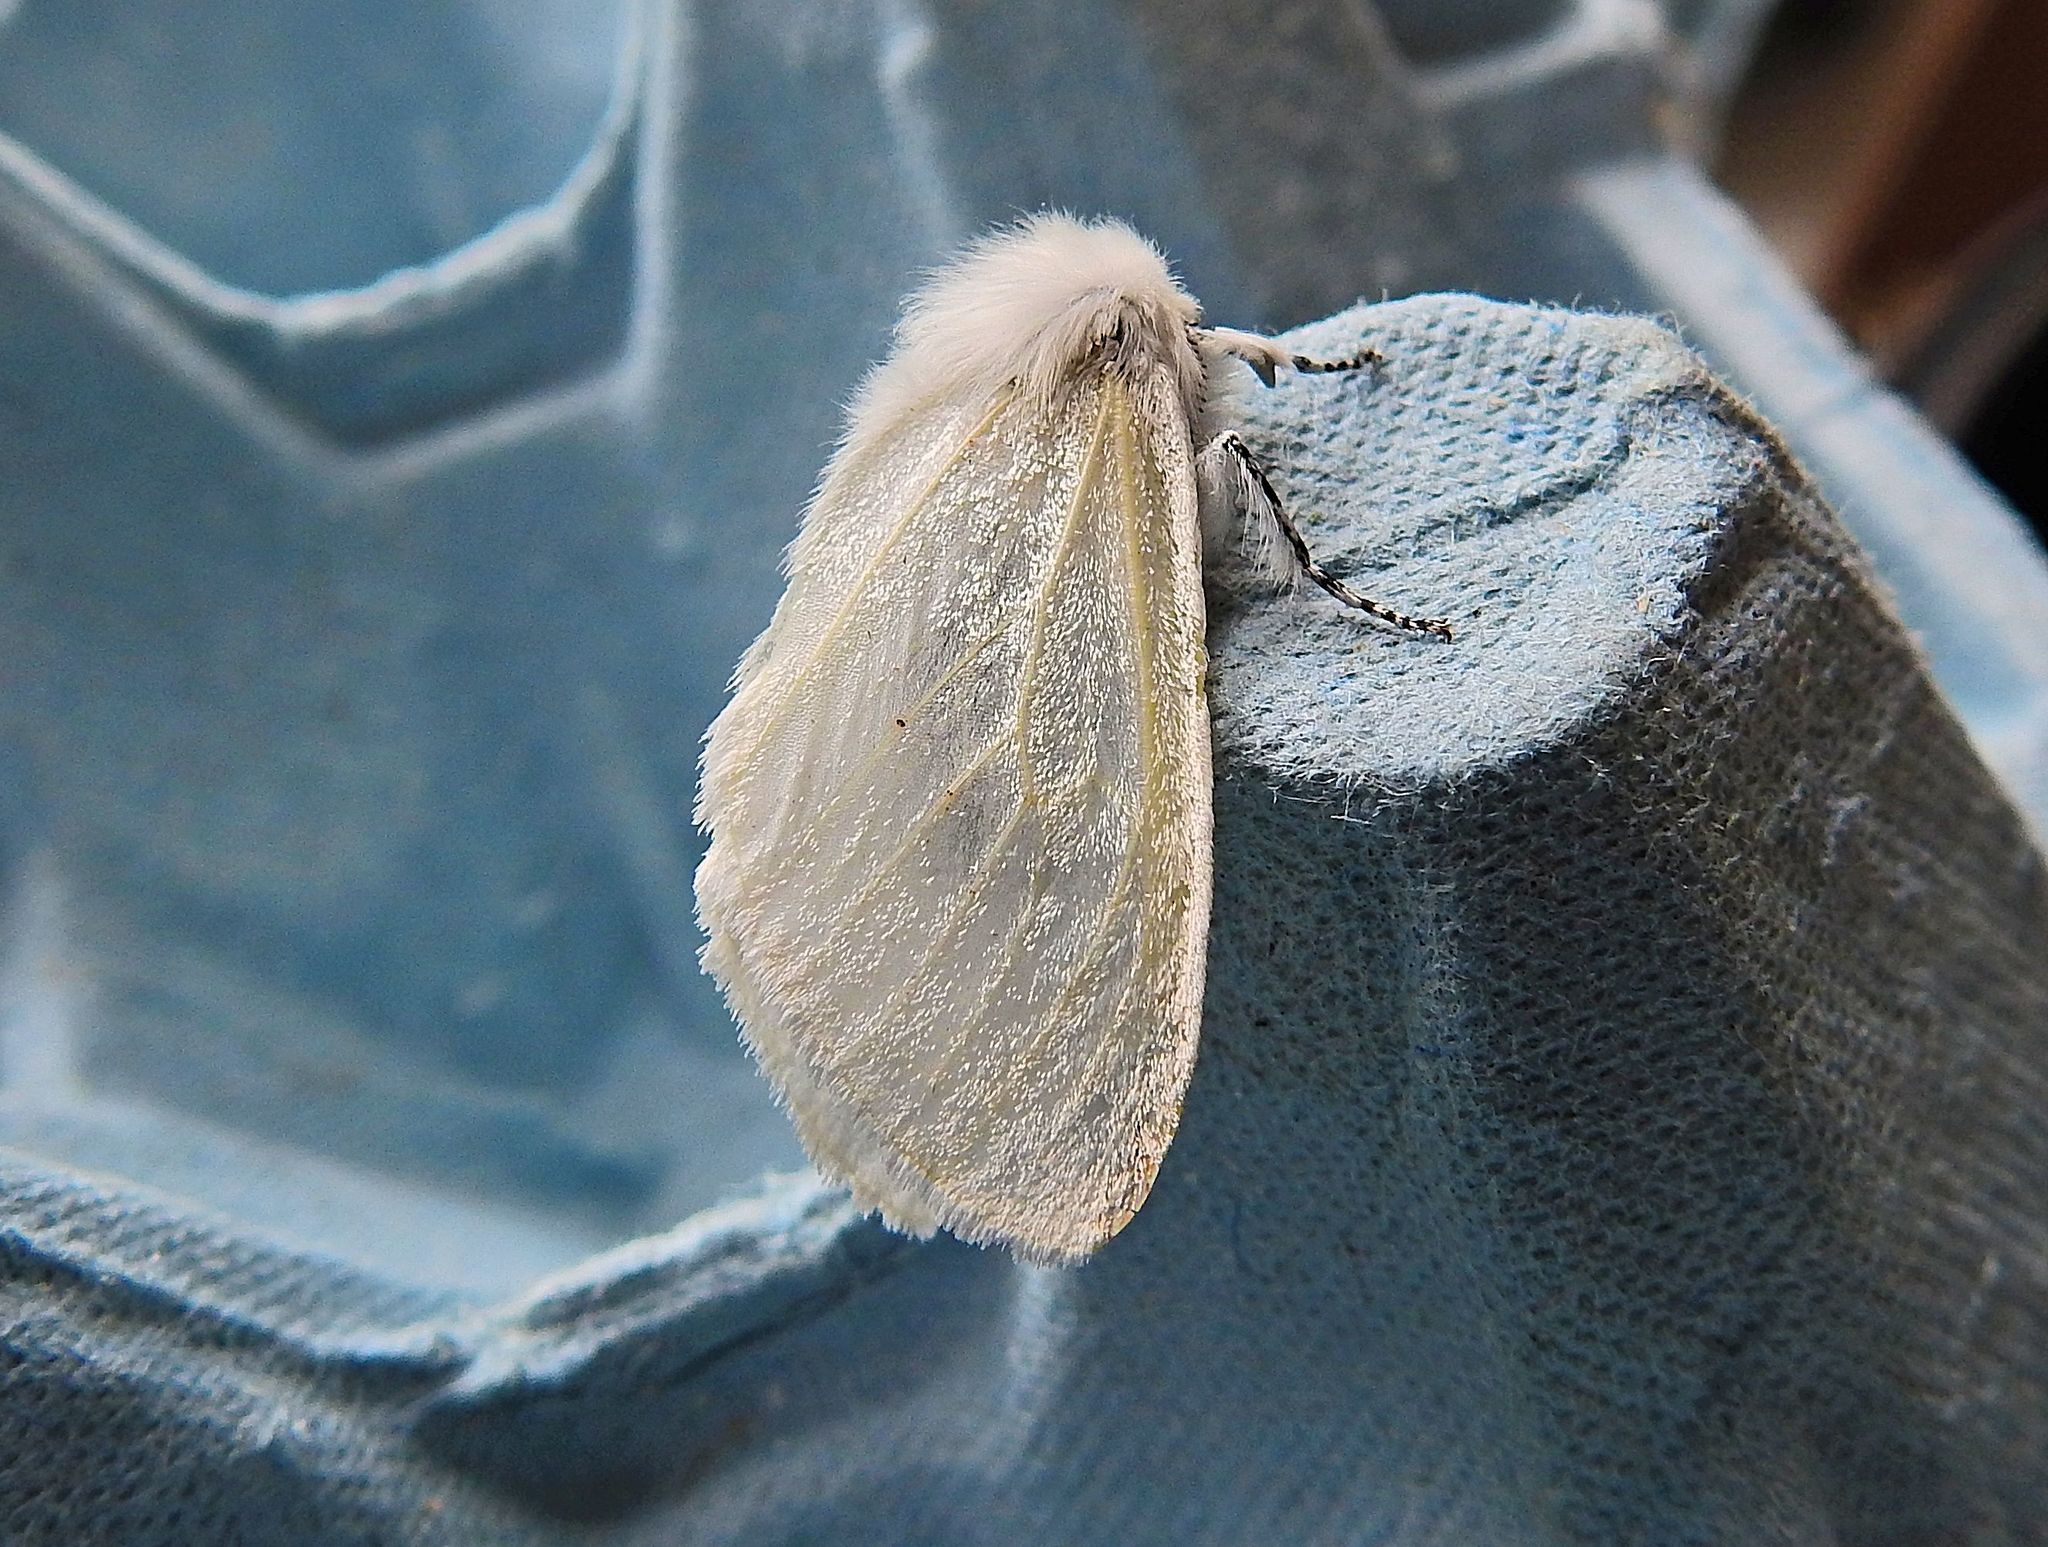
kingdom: Animalia
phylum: Arthropoda
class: Insecta
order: Lepidoptera
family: Erebidae
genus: Leucoma
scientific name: Leucoma salicis
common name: White satin moth
